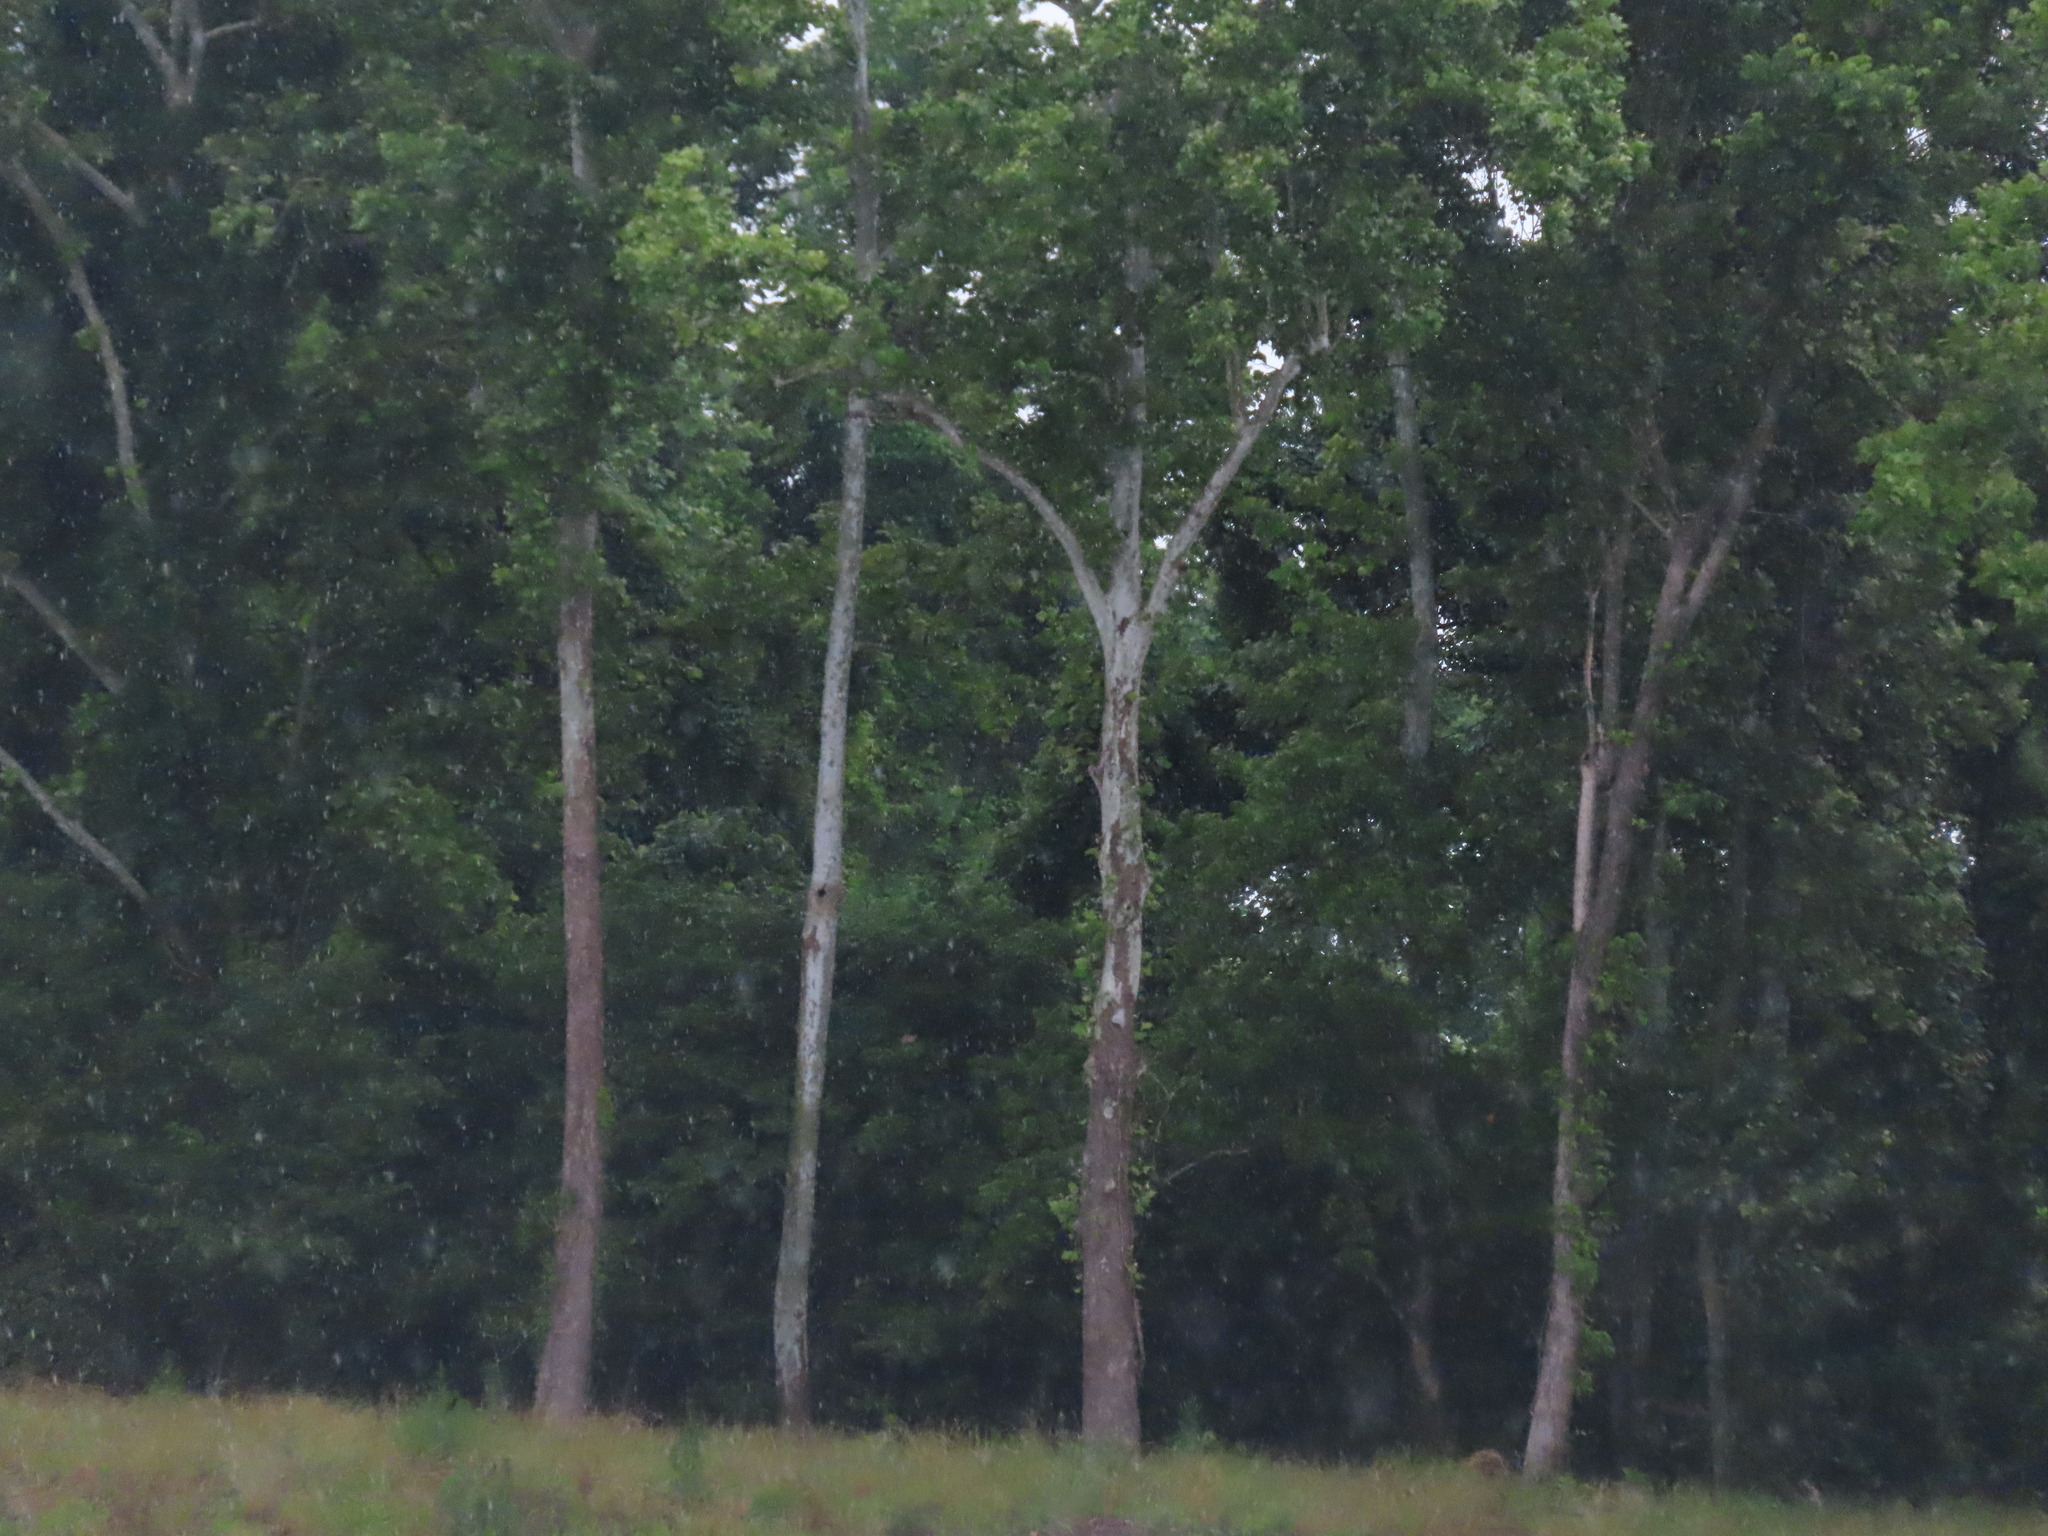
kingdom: Plantae
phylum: Tracheophyta
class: Magnoliopsida
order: Proteales
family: Platanaceae
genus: Platanus
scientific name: Platanus occidentalis
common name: American sycamore
